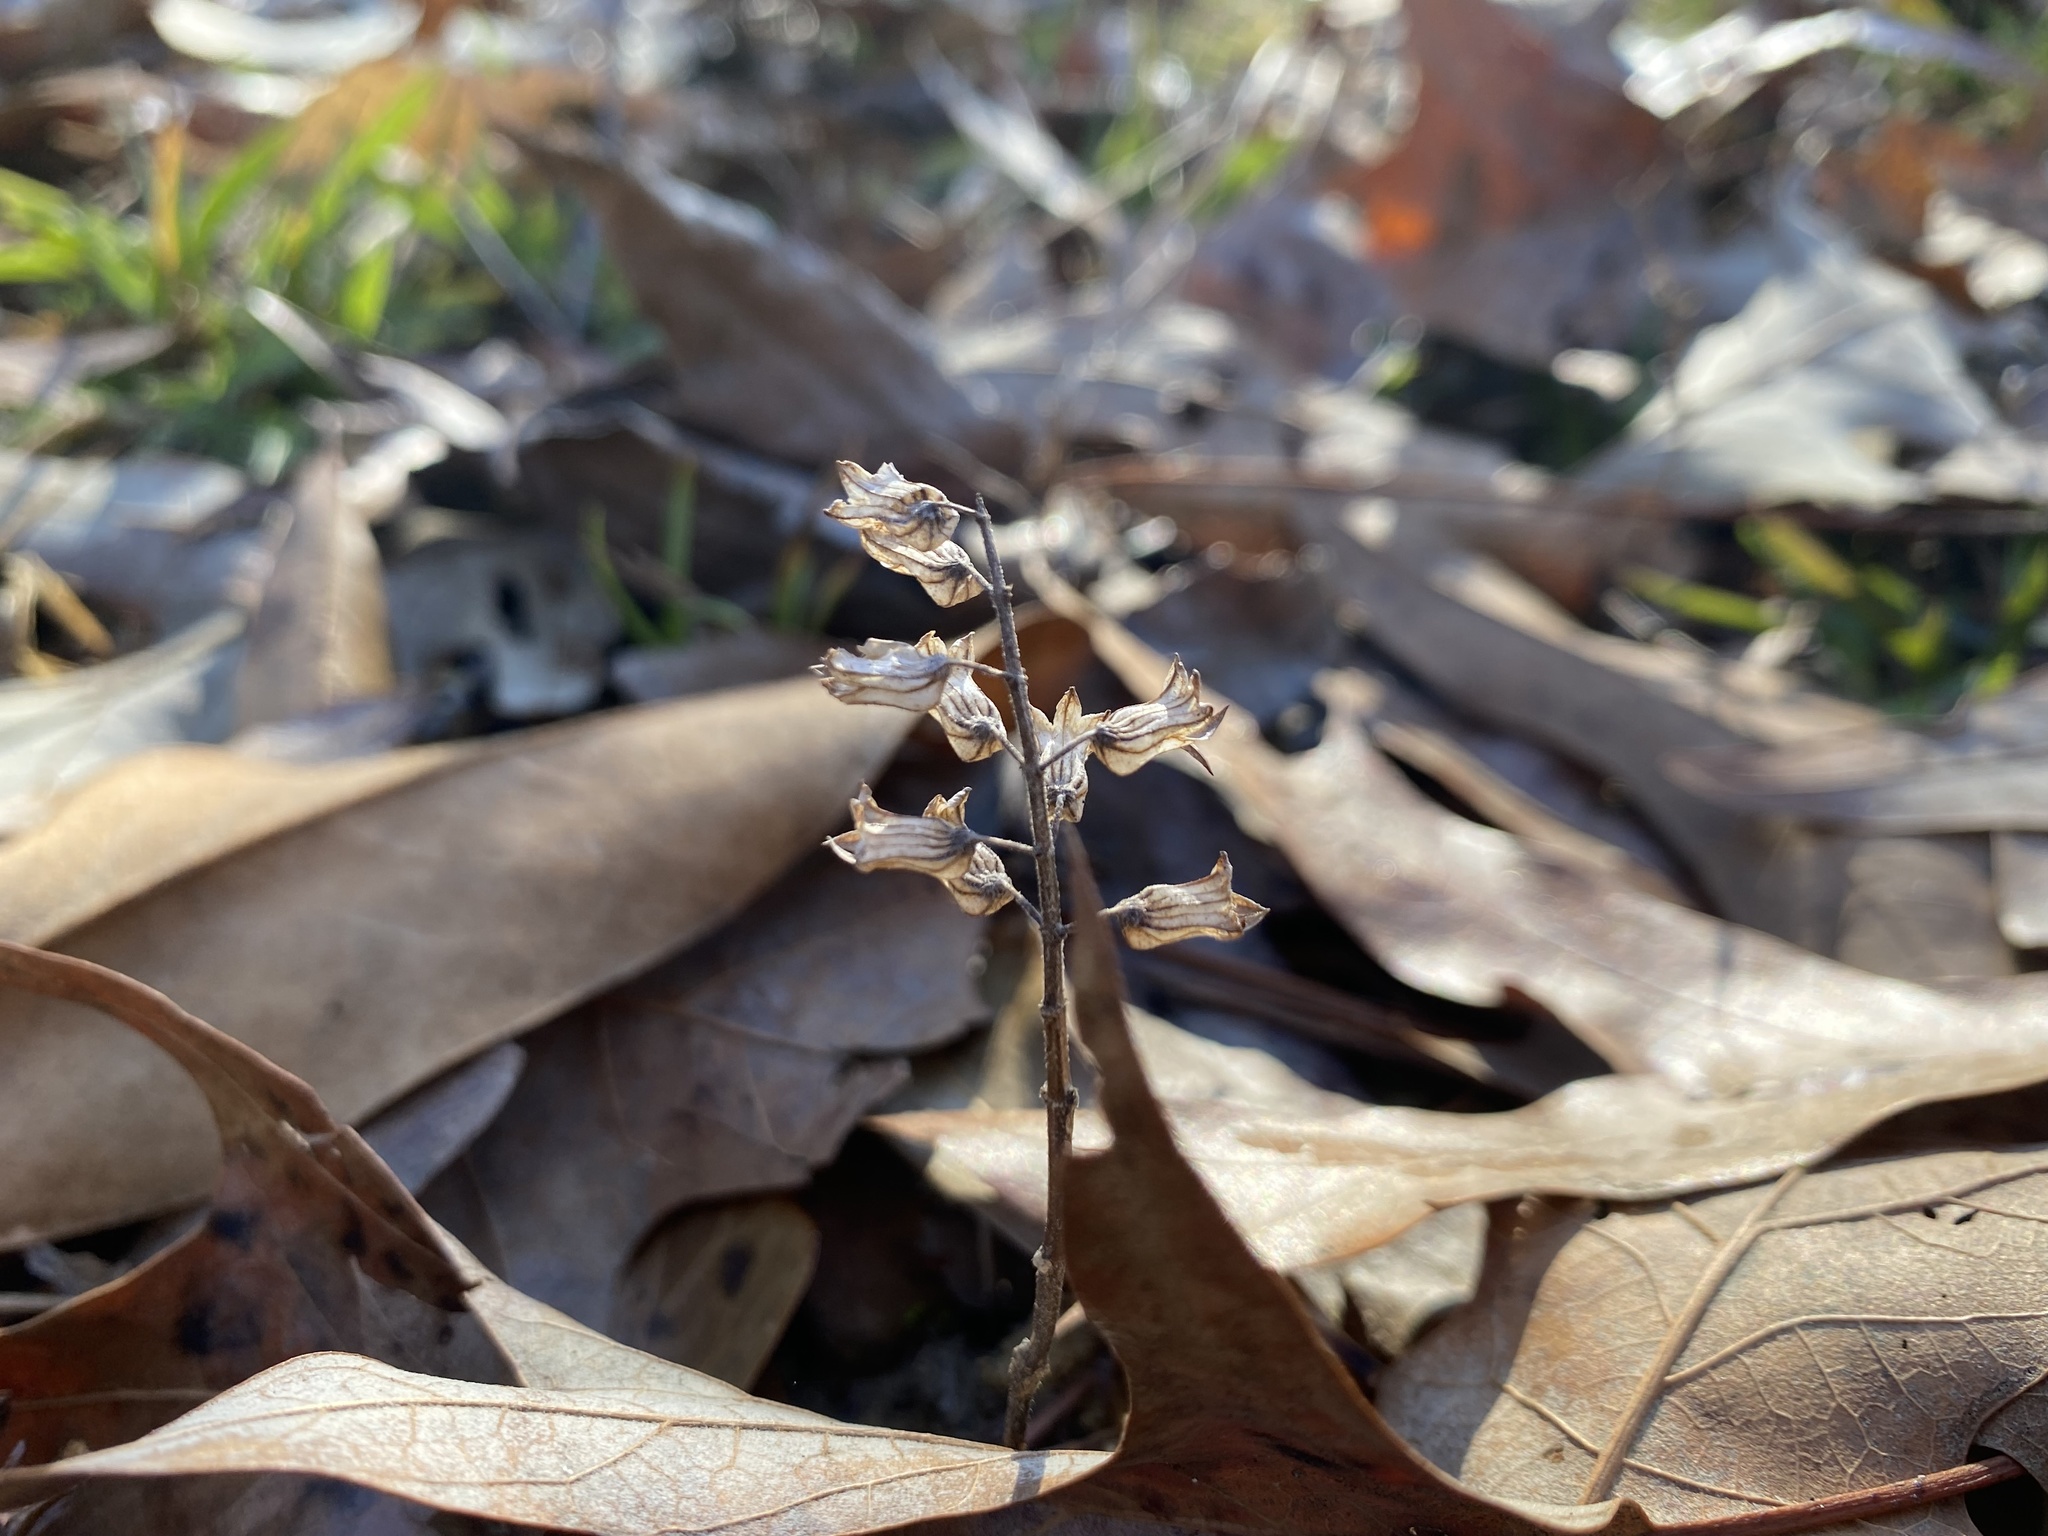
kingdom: Plantae
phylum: Tracheophyta
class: Magnoliopsida
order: Lamiales
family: Lamiaceae
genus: Perilla
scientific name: Perilla frutescens
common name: Perilla
